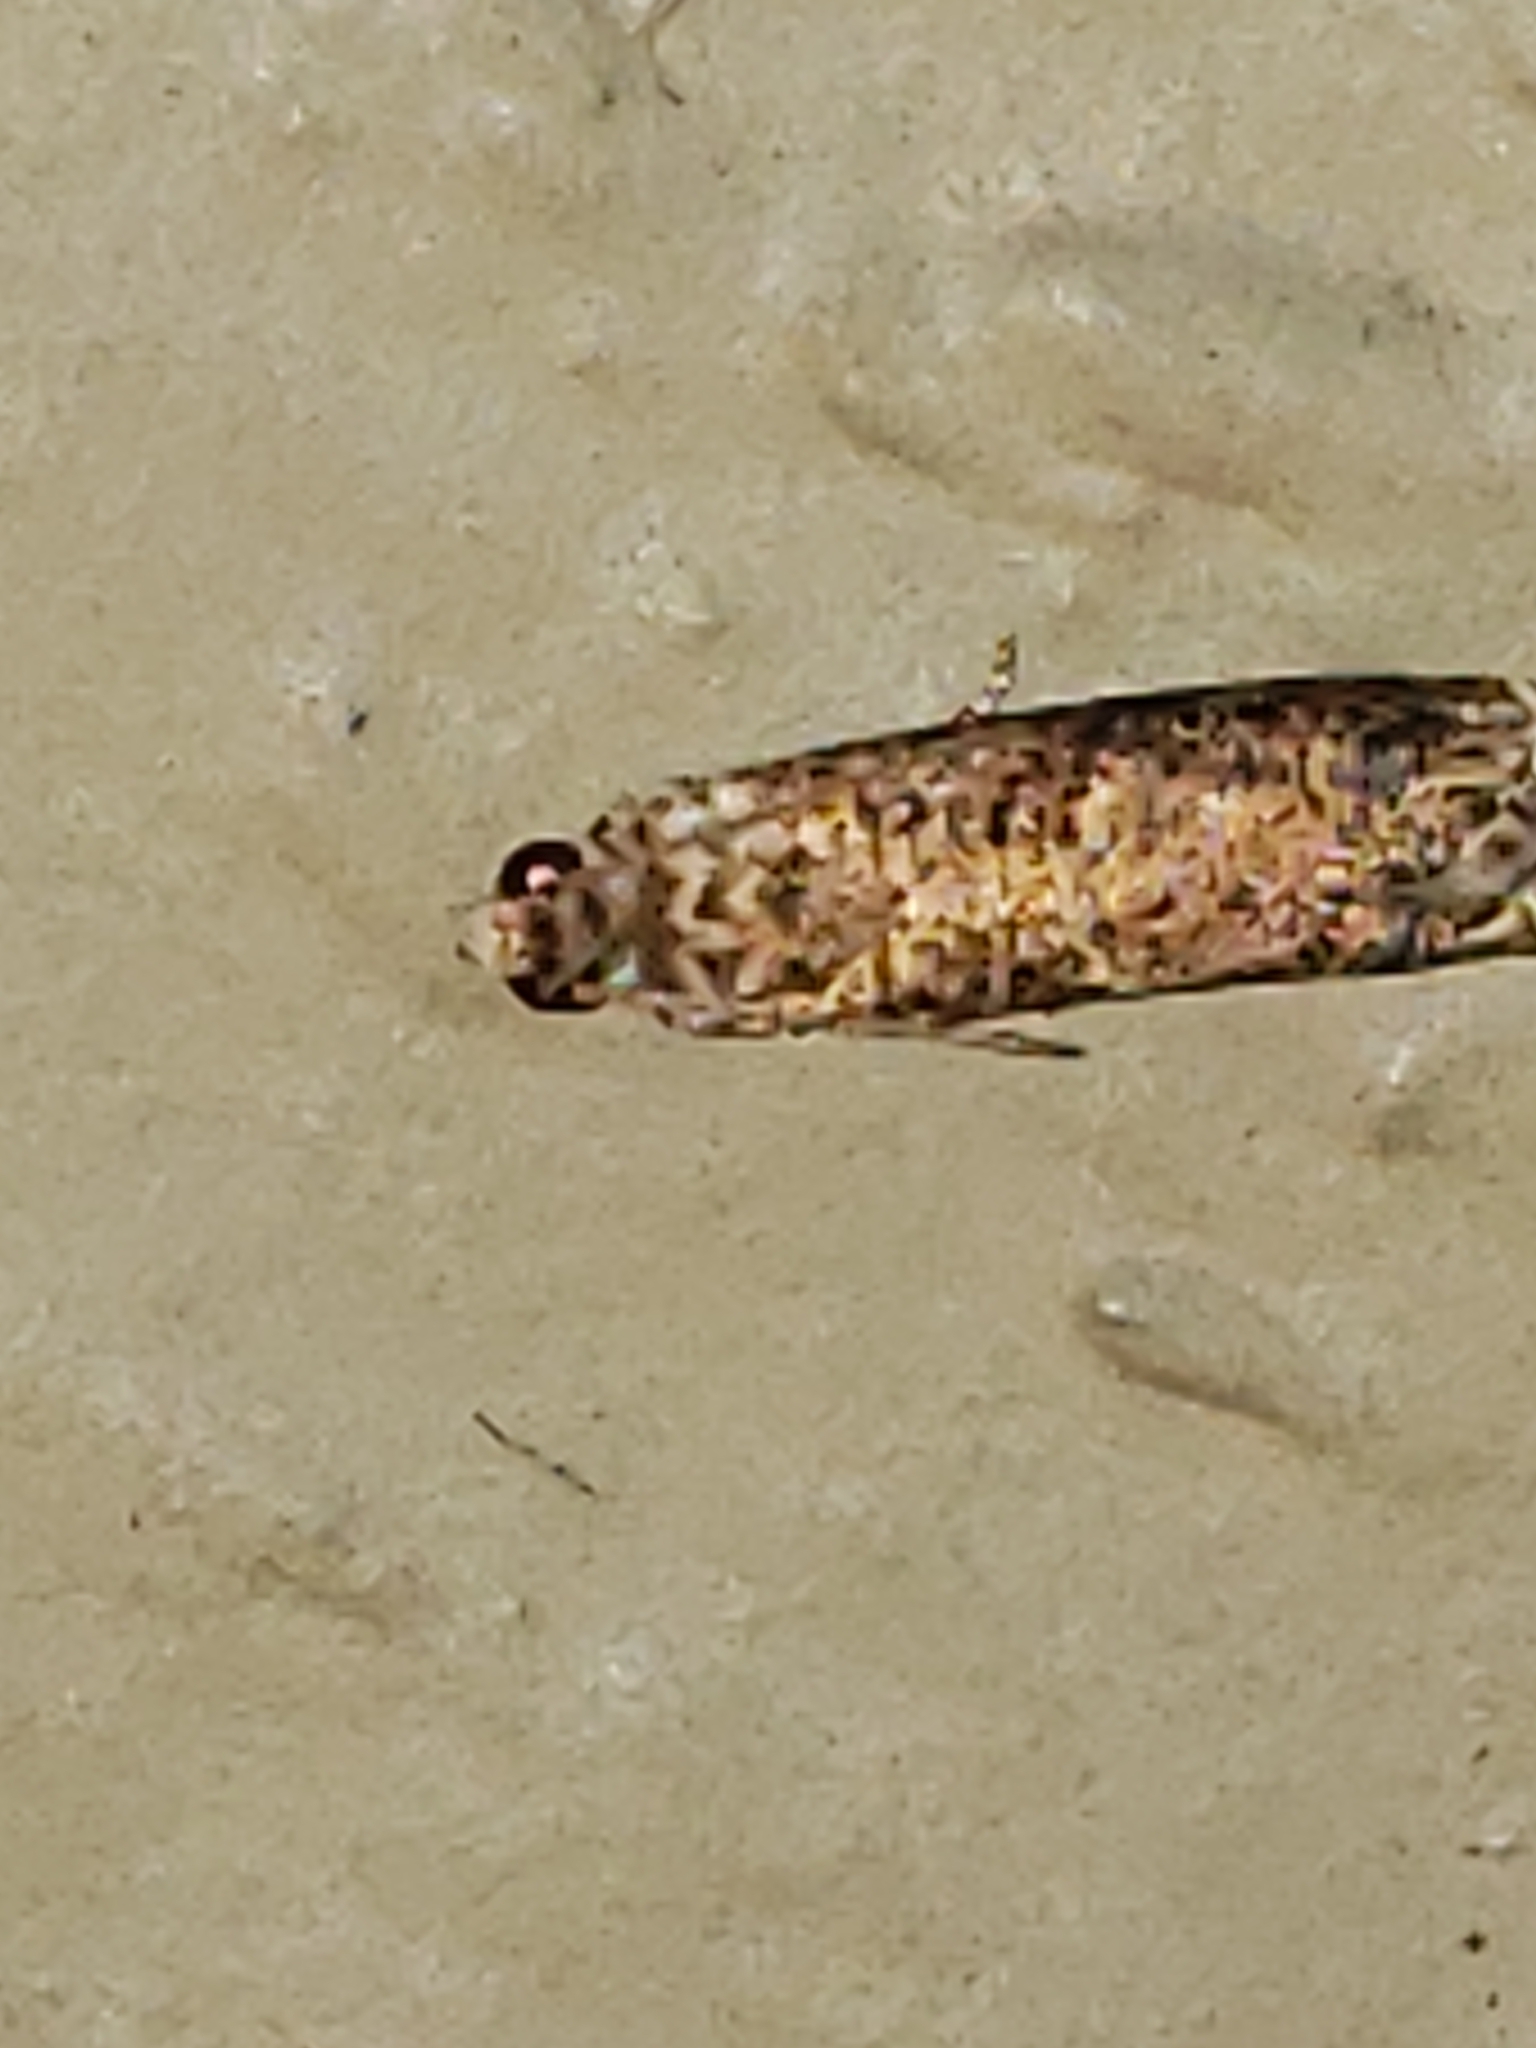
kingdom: Animalia
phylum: Arthropoda
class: Insecta
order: Lepidoptera
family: Tortricidae
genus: Episimus
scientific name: Episimus argutana
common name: Sumac leaftier moth
